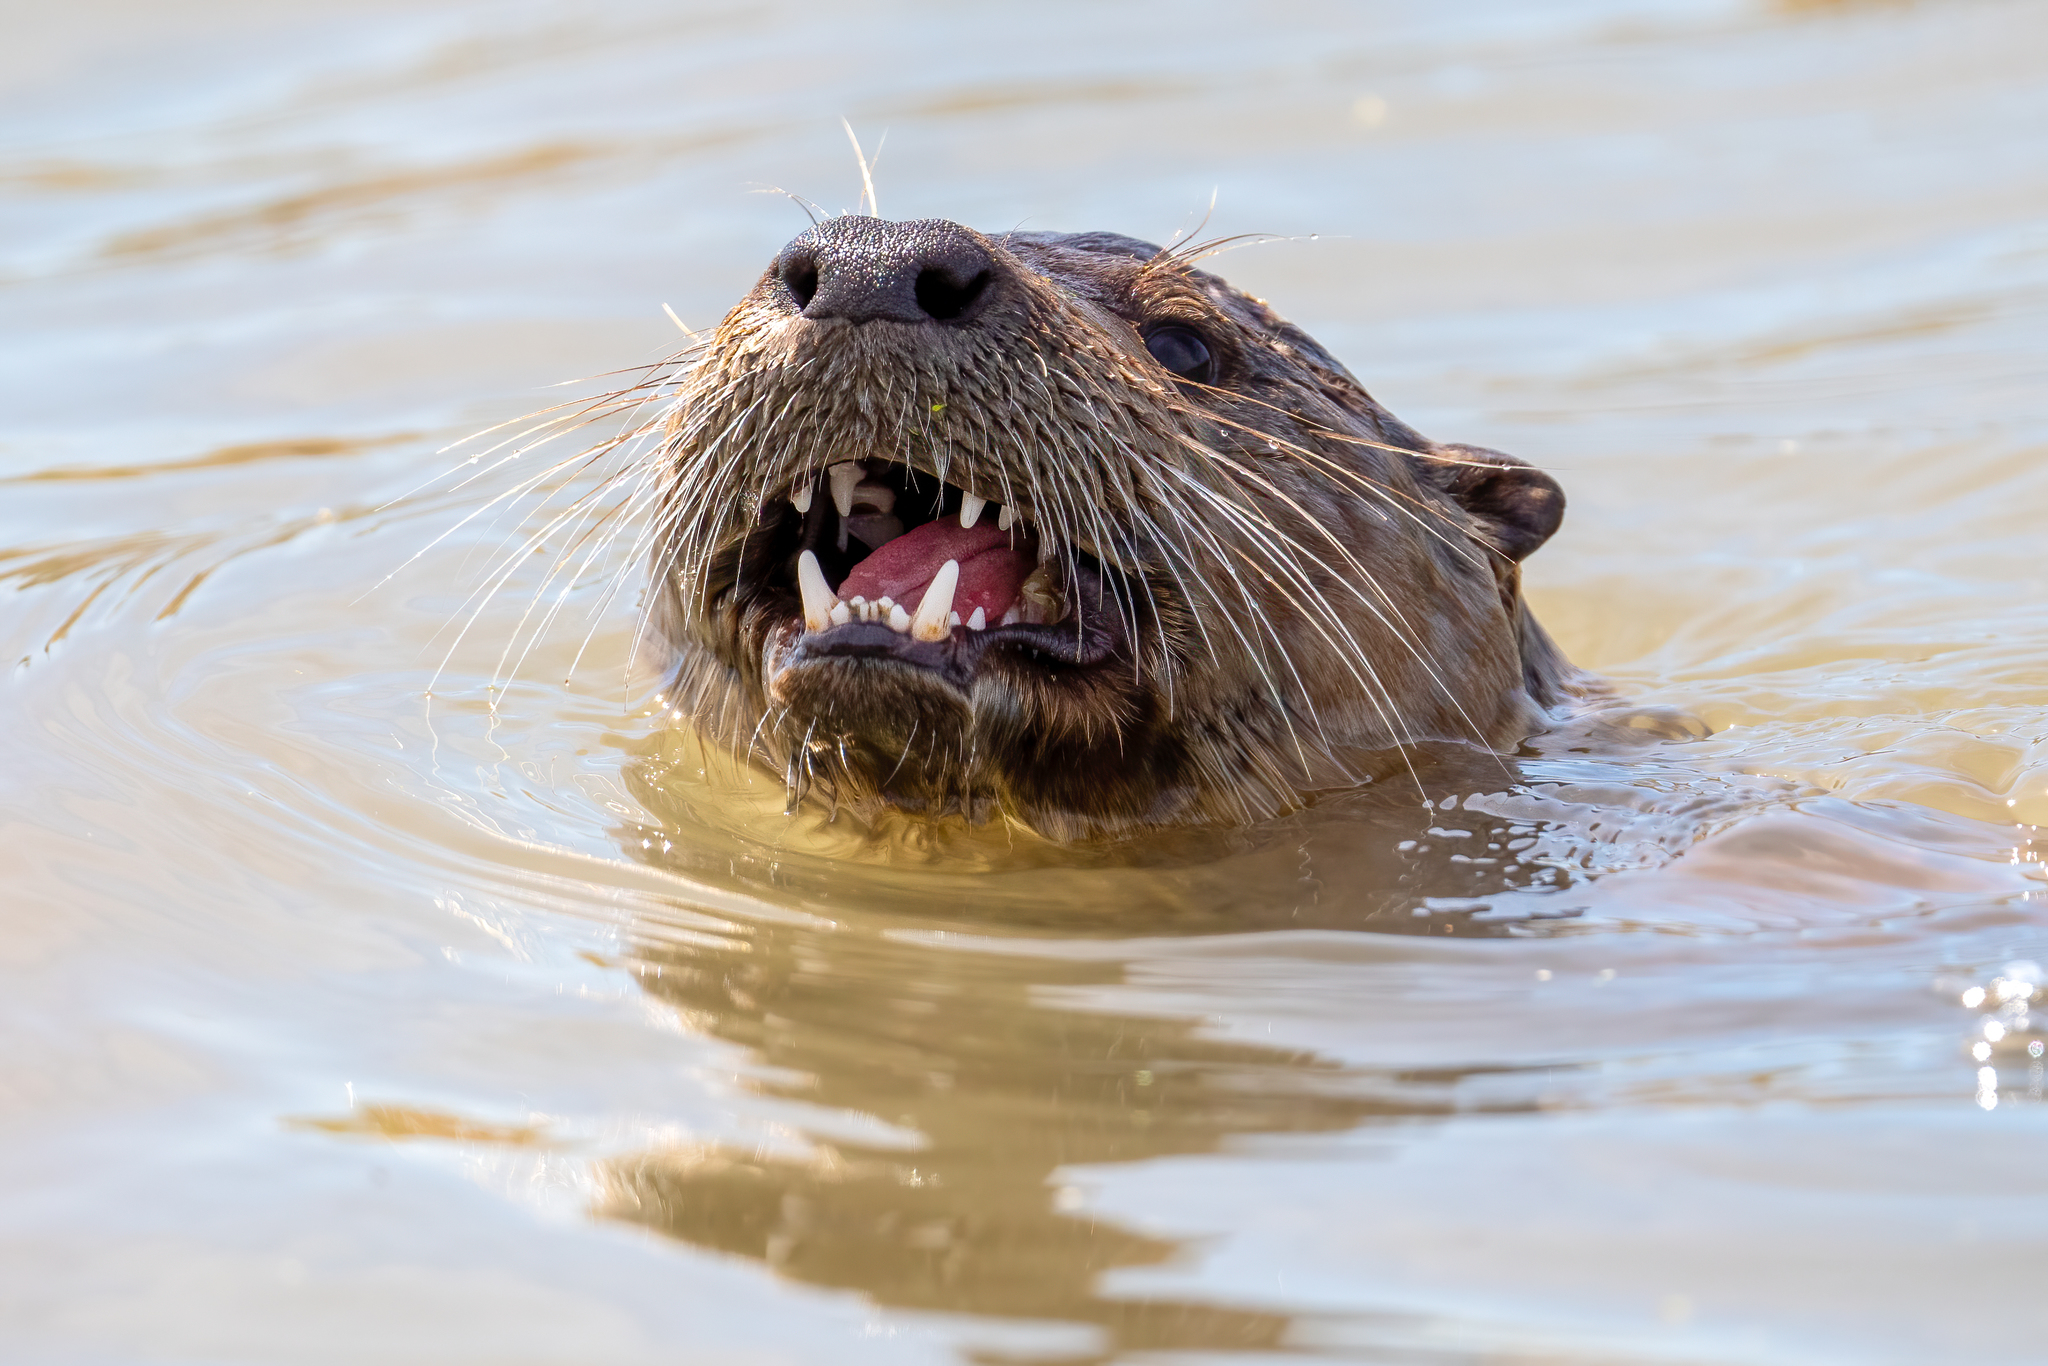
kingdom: Animalia
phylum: Chordata
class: Mammalia
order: Carnivora
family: Mustelidae
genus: Lontra
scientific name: Lontra canadensis
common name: North american river otter
